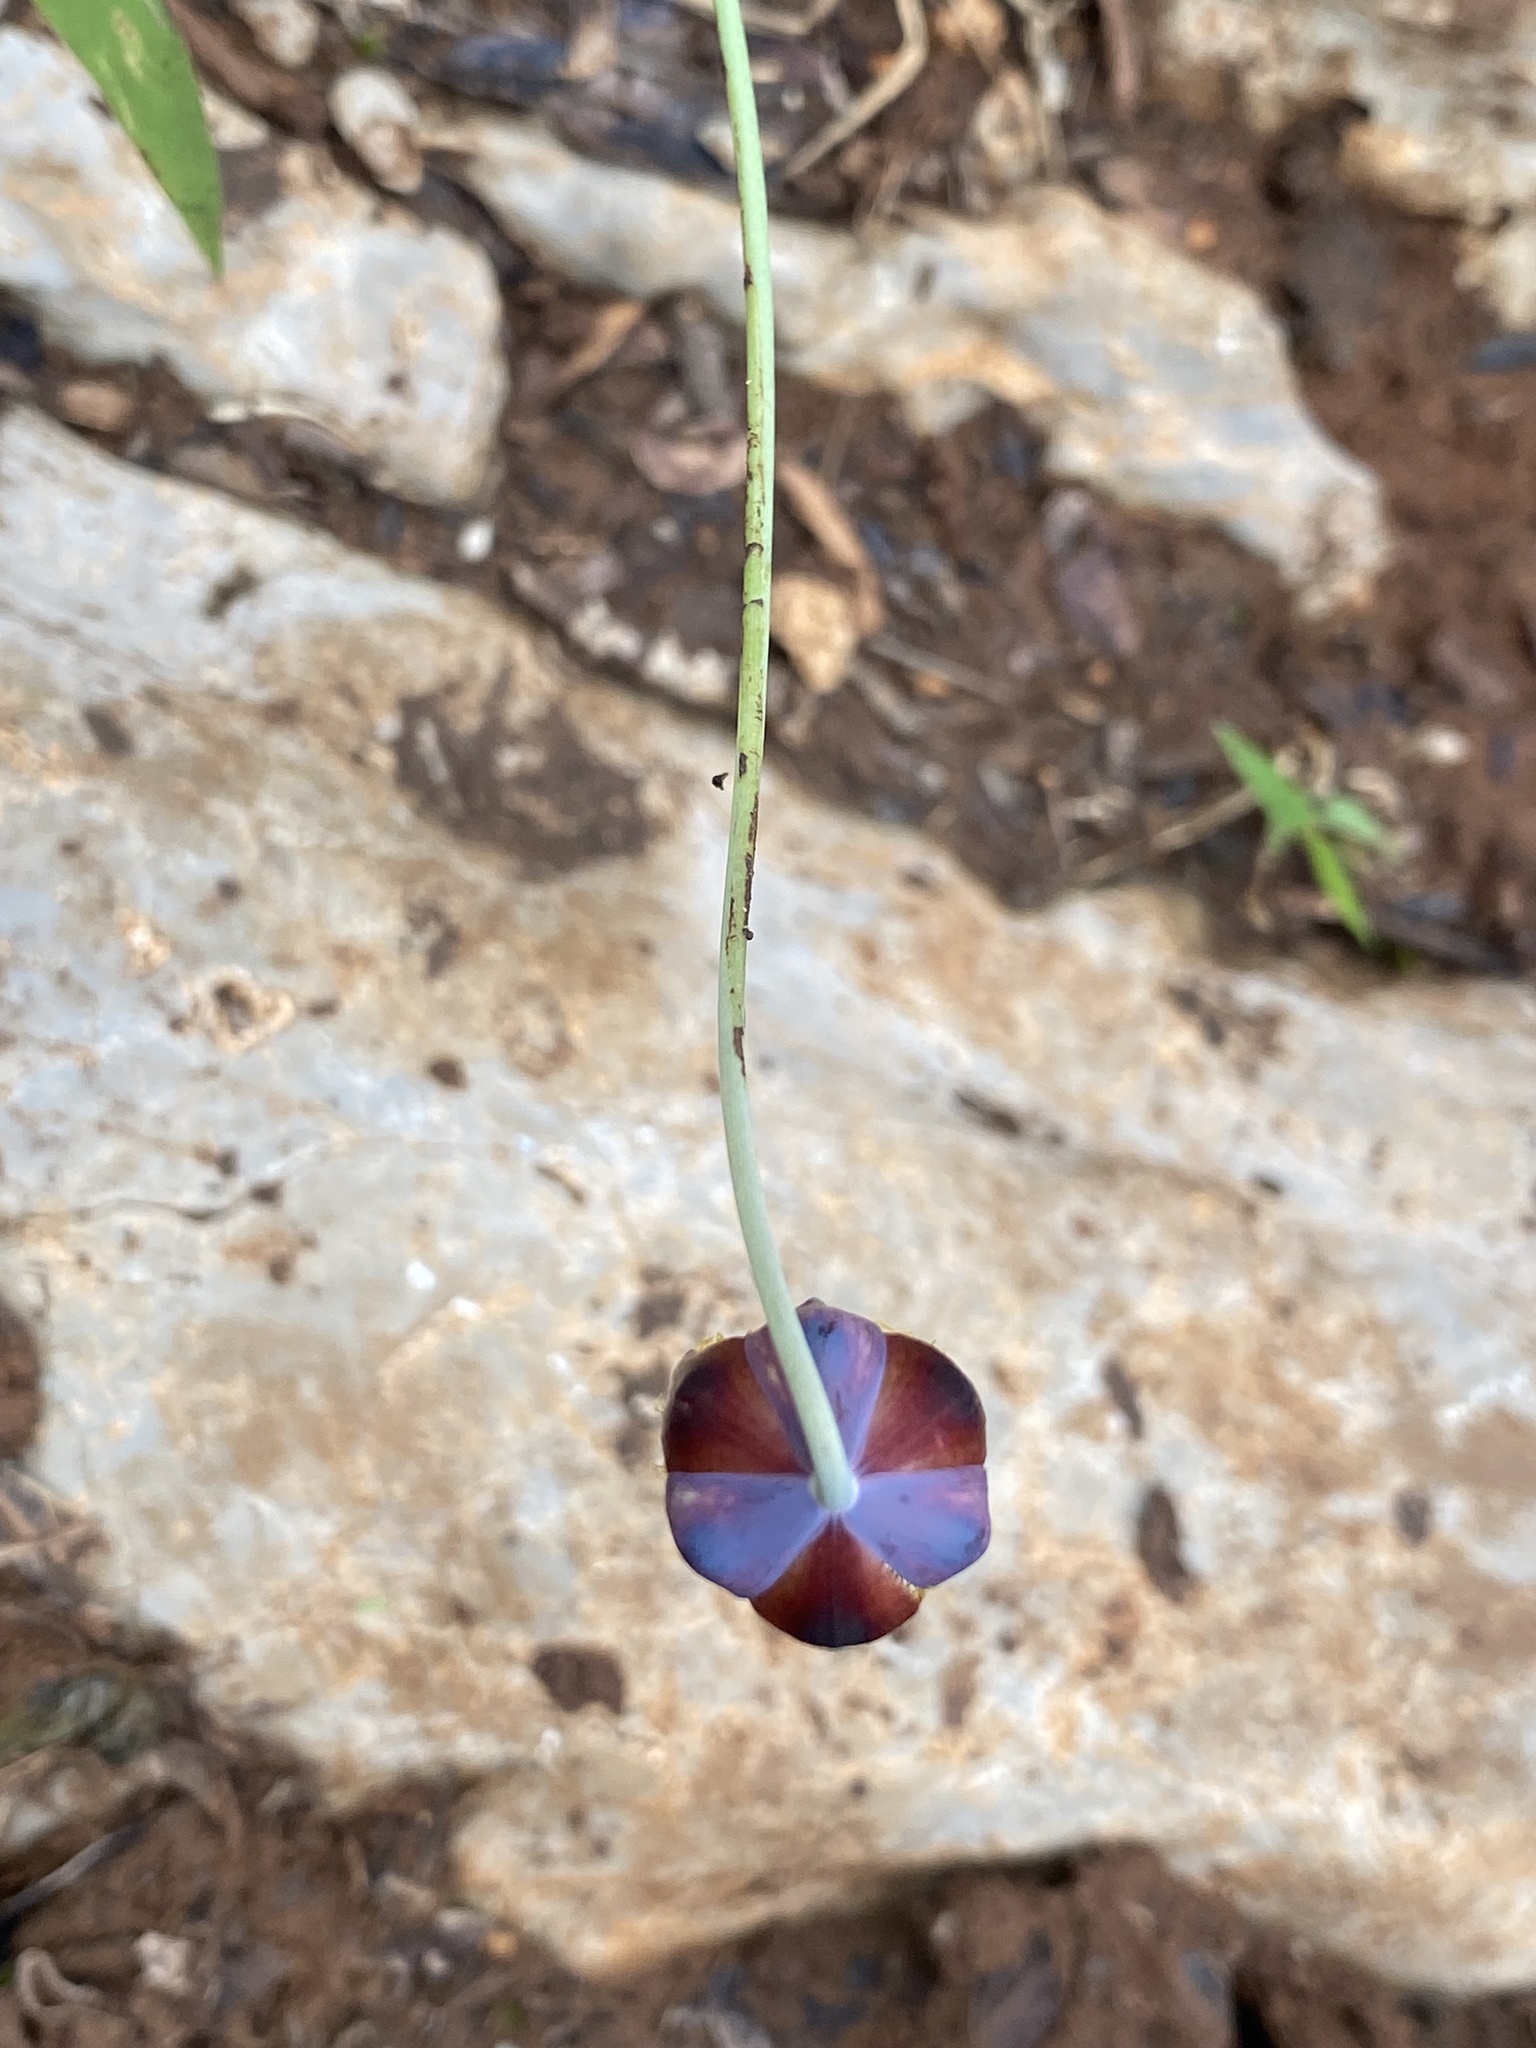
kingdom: Plantae
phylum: Tracheophyta
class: Liliopsida
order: Liliales
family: Liliaceae
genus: Calochortus
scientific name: Calochortus barbatus
